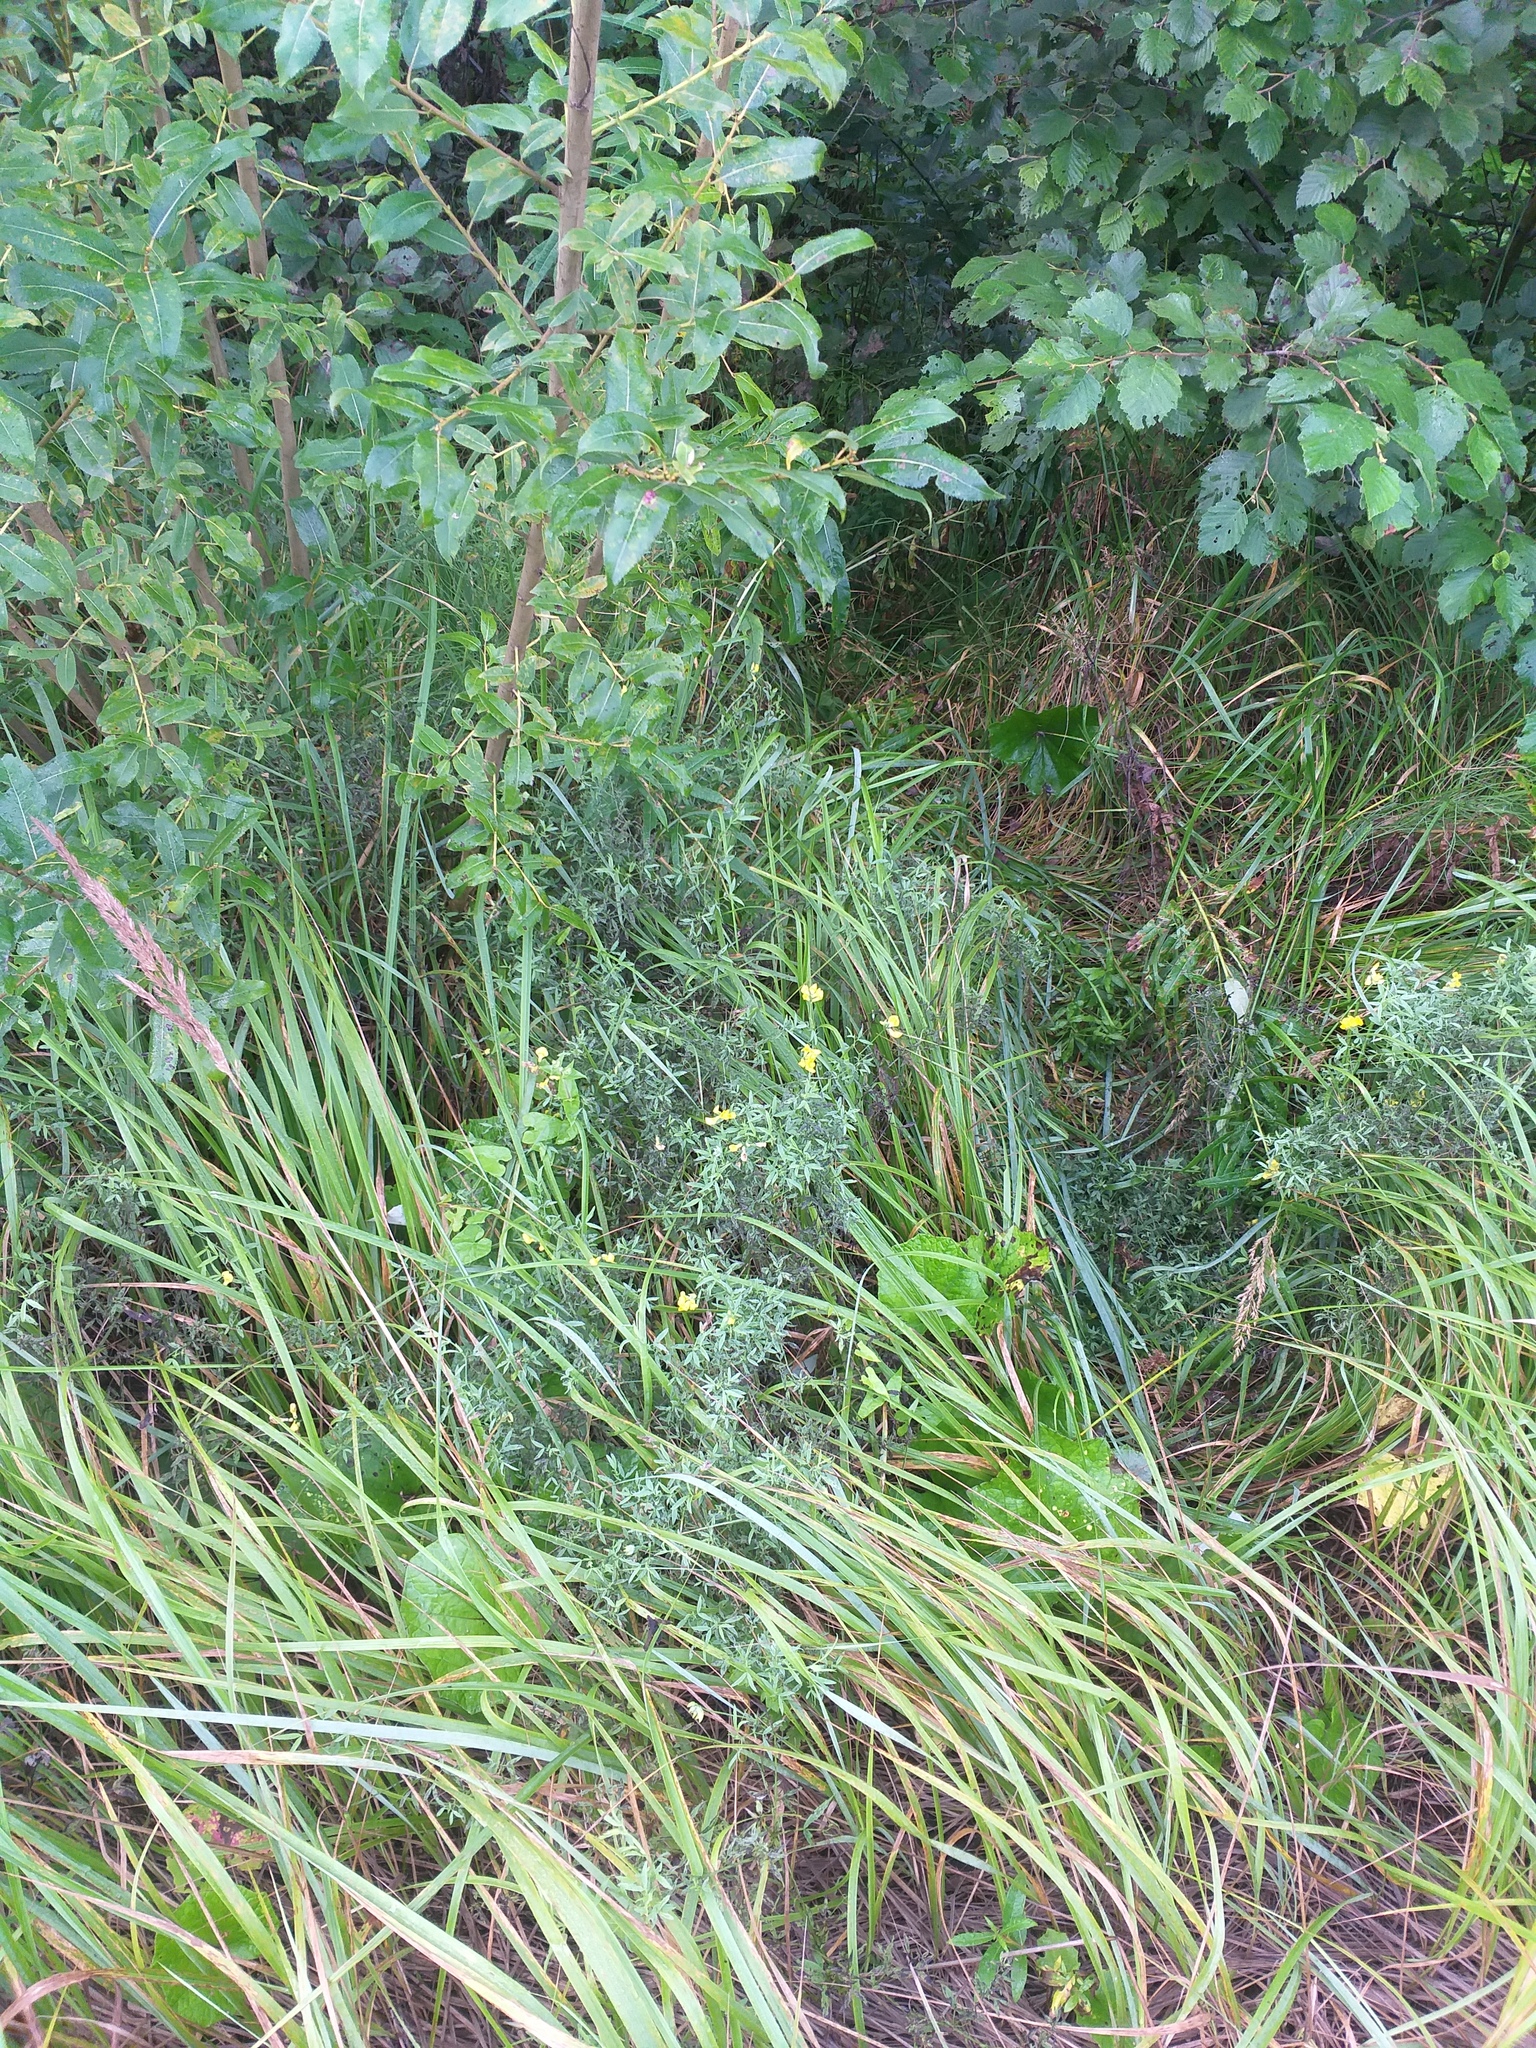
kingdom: Plantae
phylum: Tracheophyta
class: Magnoliopsida
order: Fabales
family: Fabaceae
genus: Lathyrus
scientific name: Lathyrus pratensis
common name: Meadow vetchling
